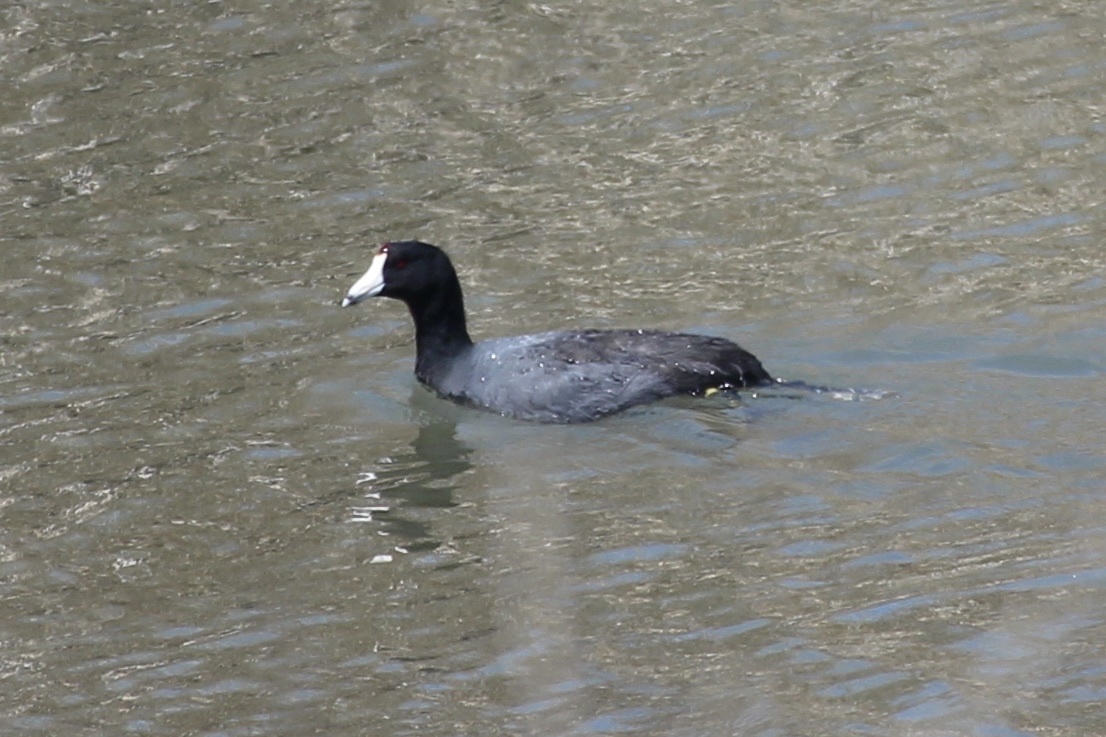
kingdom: Animalia
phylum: Chordata
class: Aves
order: Gruiformes
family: Rallidae
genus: Fulica
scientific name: Fulica americana
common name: American coot
